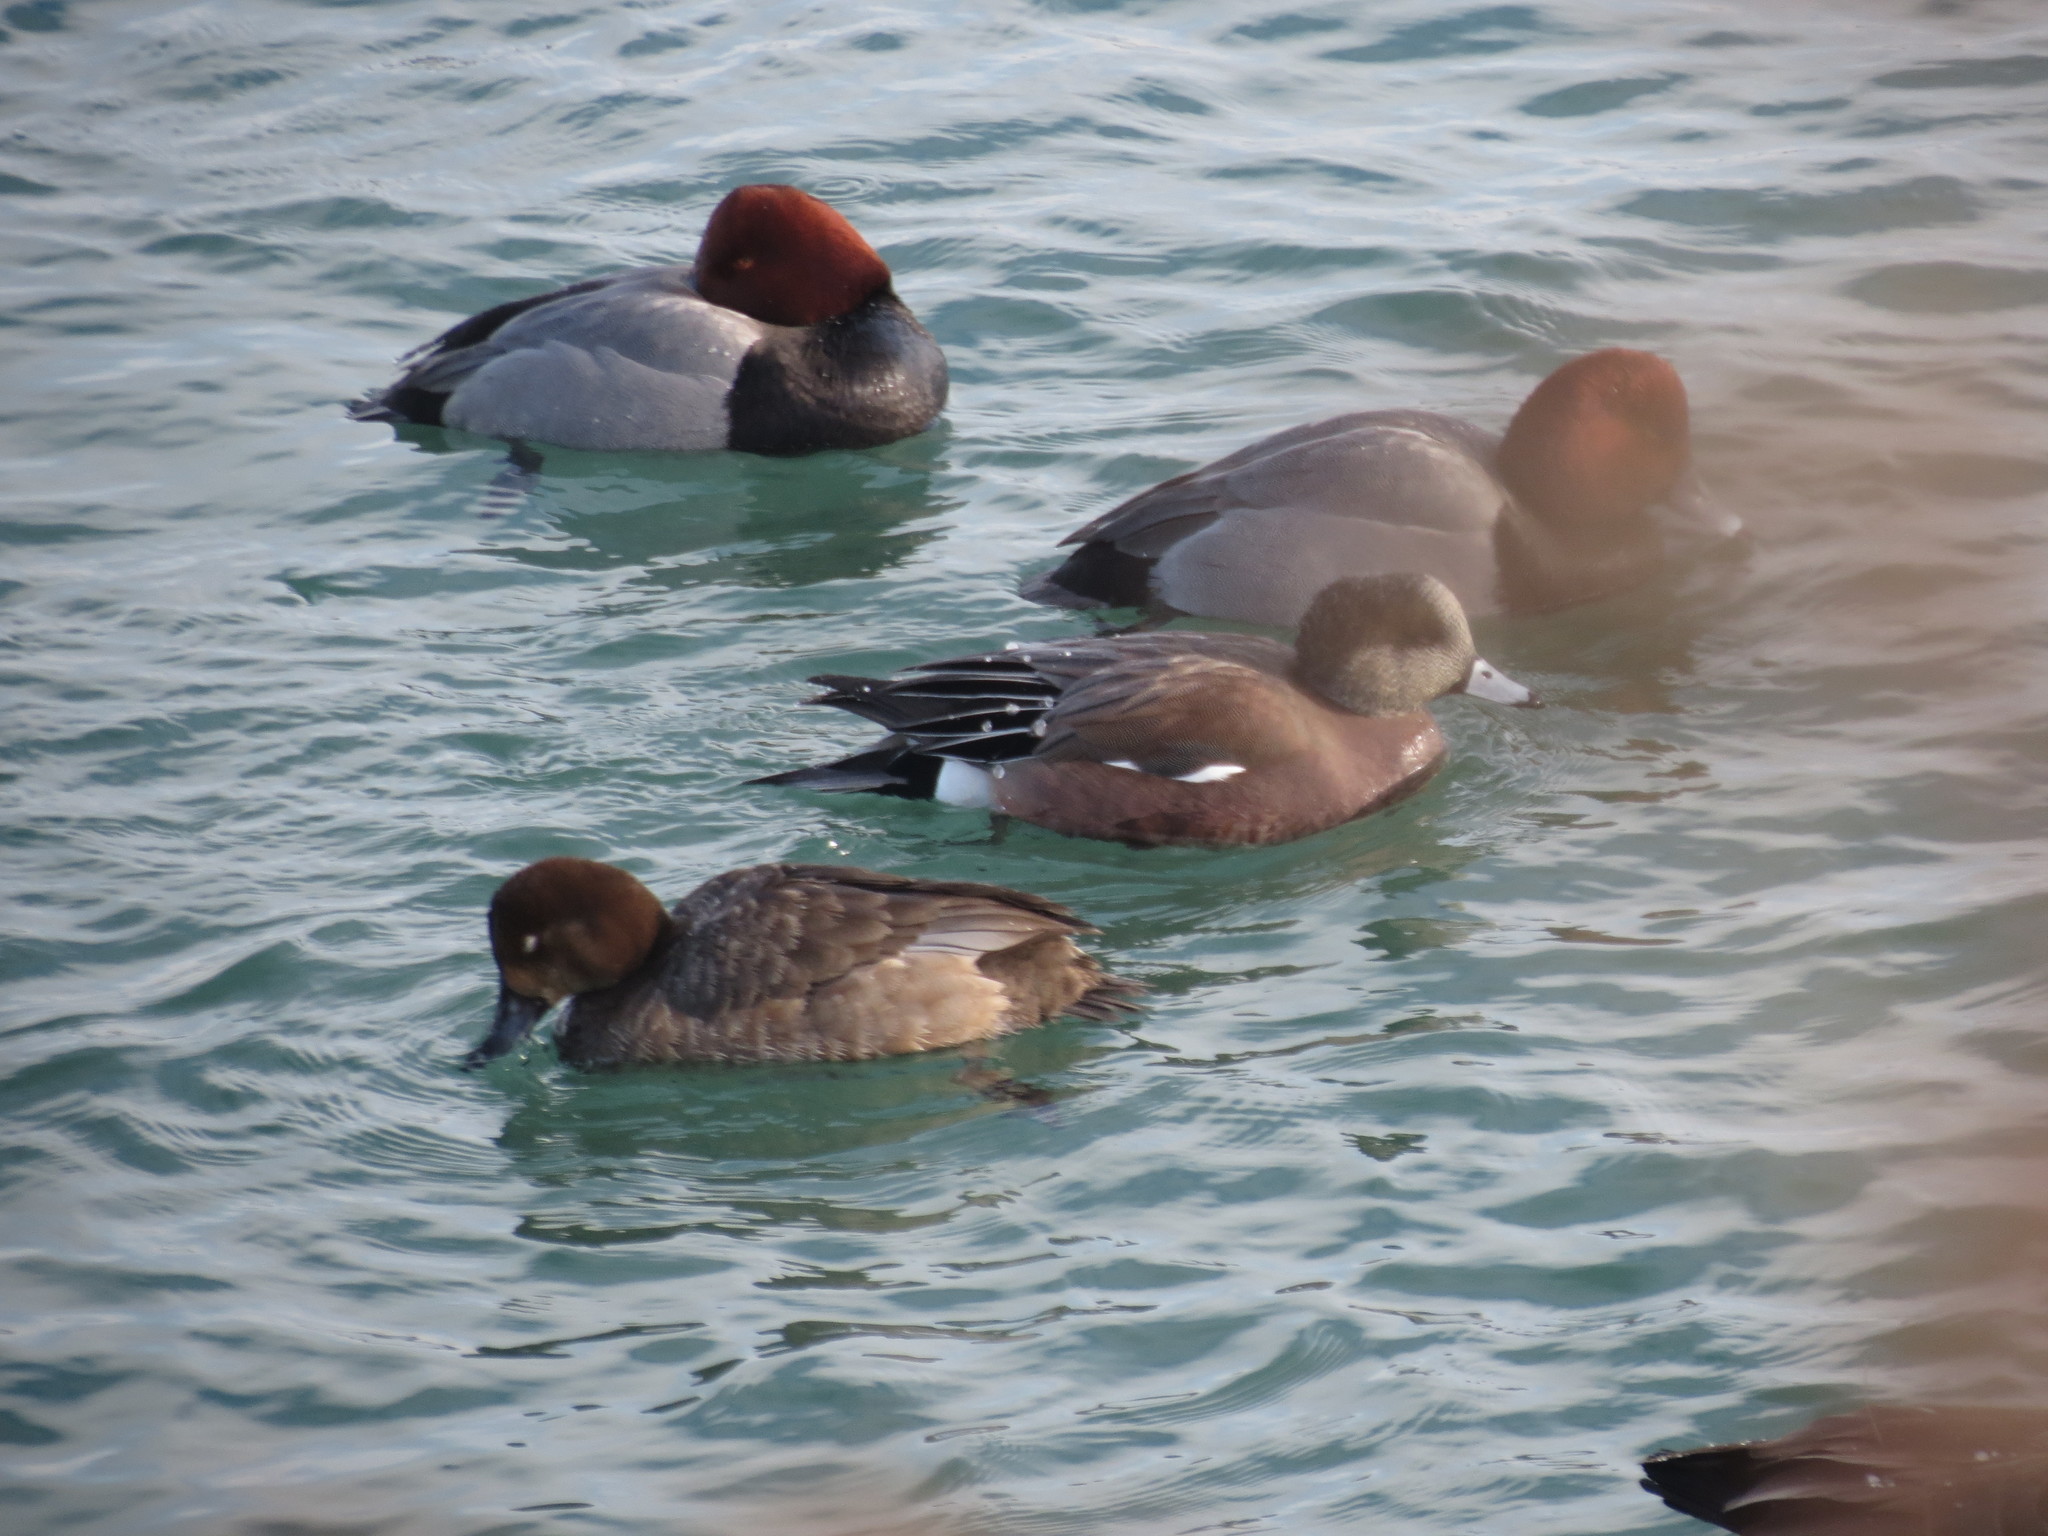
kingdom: Animalia
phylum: Chordata
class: Aves
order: Anseriformes
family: Anatidae
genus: Mareca
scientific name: Mareca americana
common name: American wigeon
